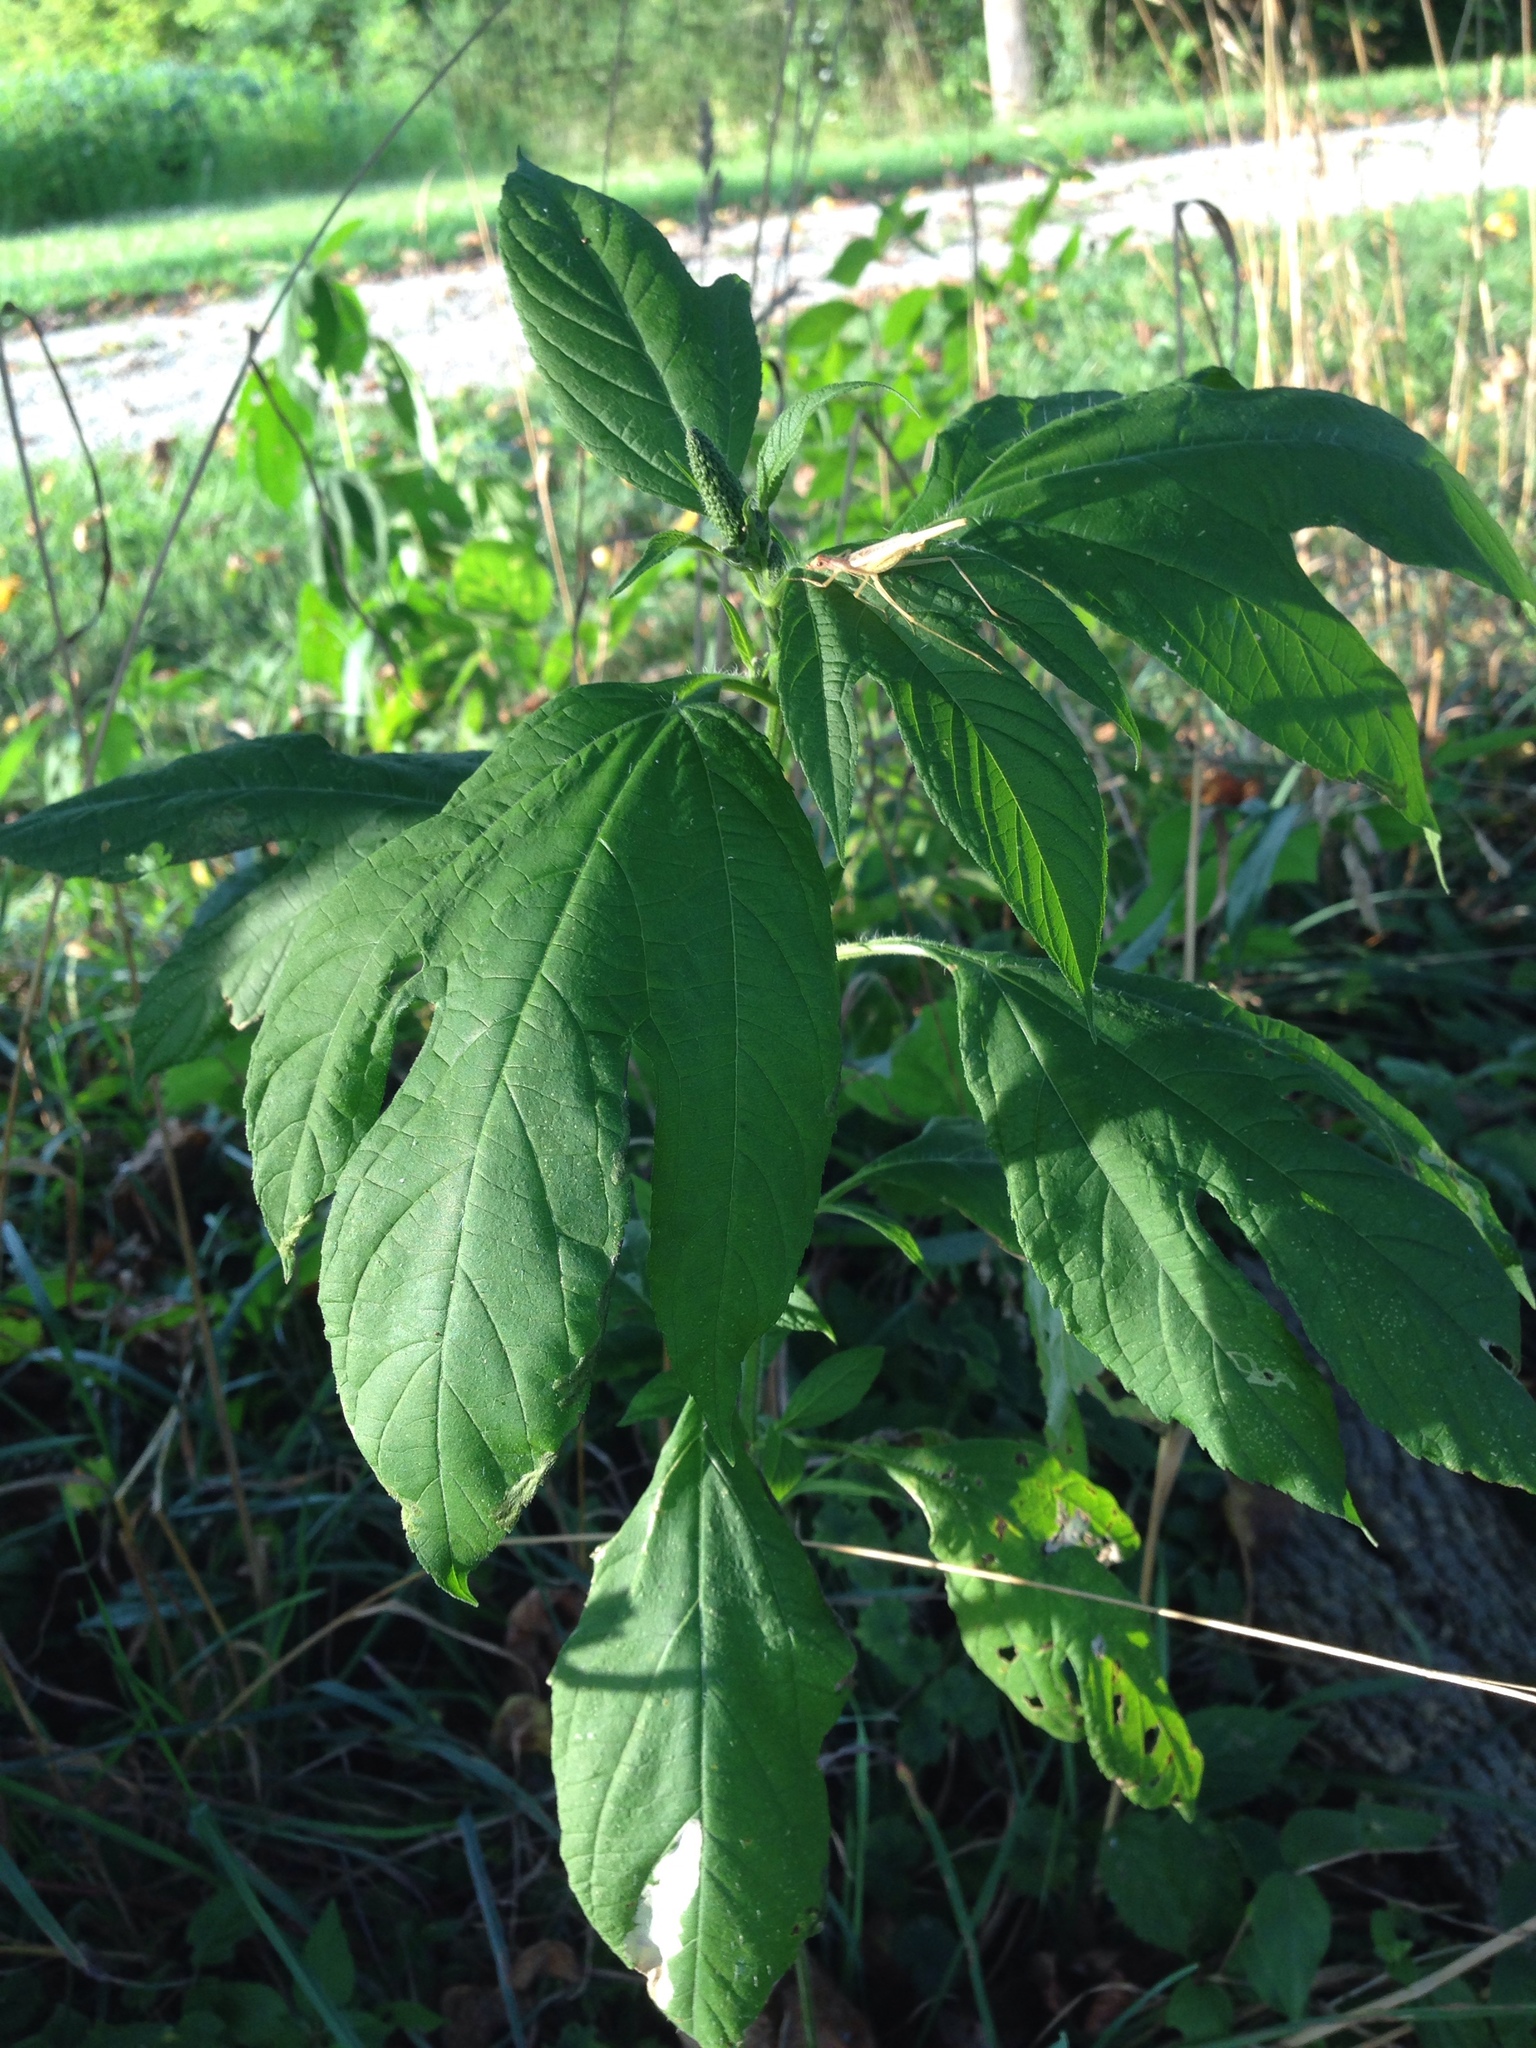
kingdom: Plantae
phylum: Tracheophyta
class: Magnoliopsida
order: Asterales
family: Asteraceae
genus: Ambrosia
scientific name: Ambrosia trifida
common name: Giant ragweed
